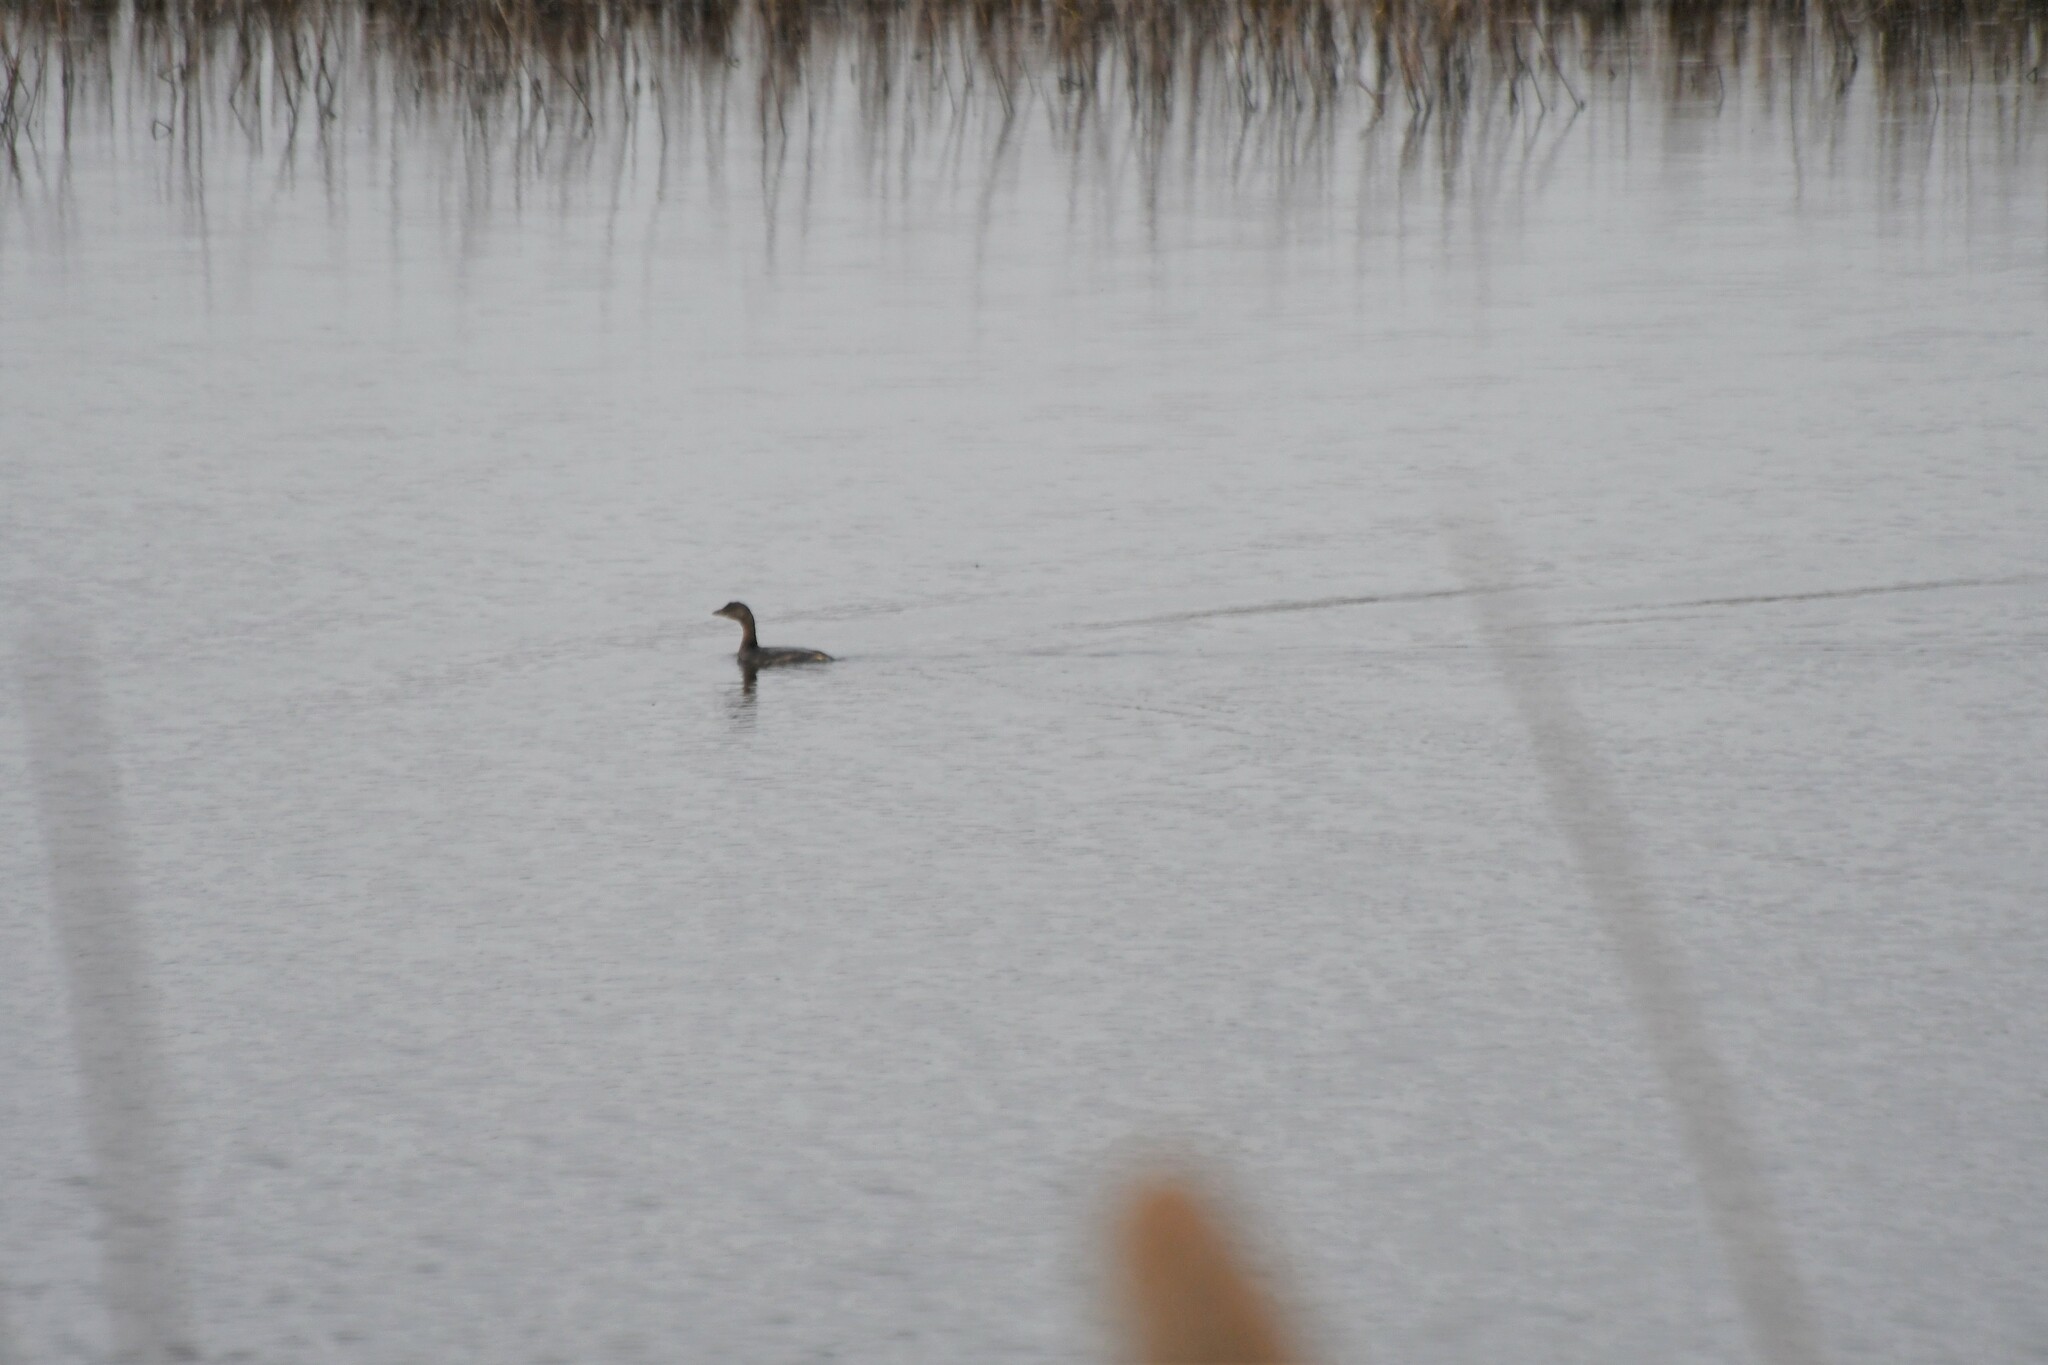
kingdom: Animalia
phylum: Chordata
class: Aves
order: Podicipediformes
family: Podicipedidae
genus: Podilymbus
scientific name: Podilymbus podiceps
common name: Pied-billed grebe
